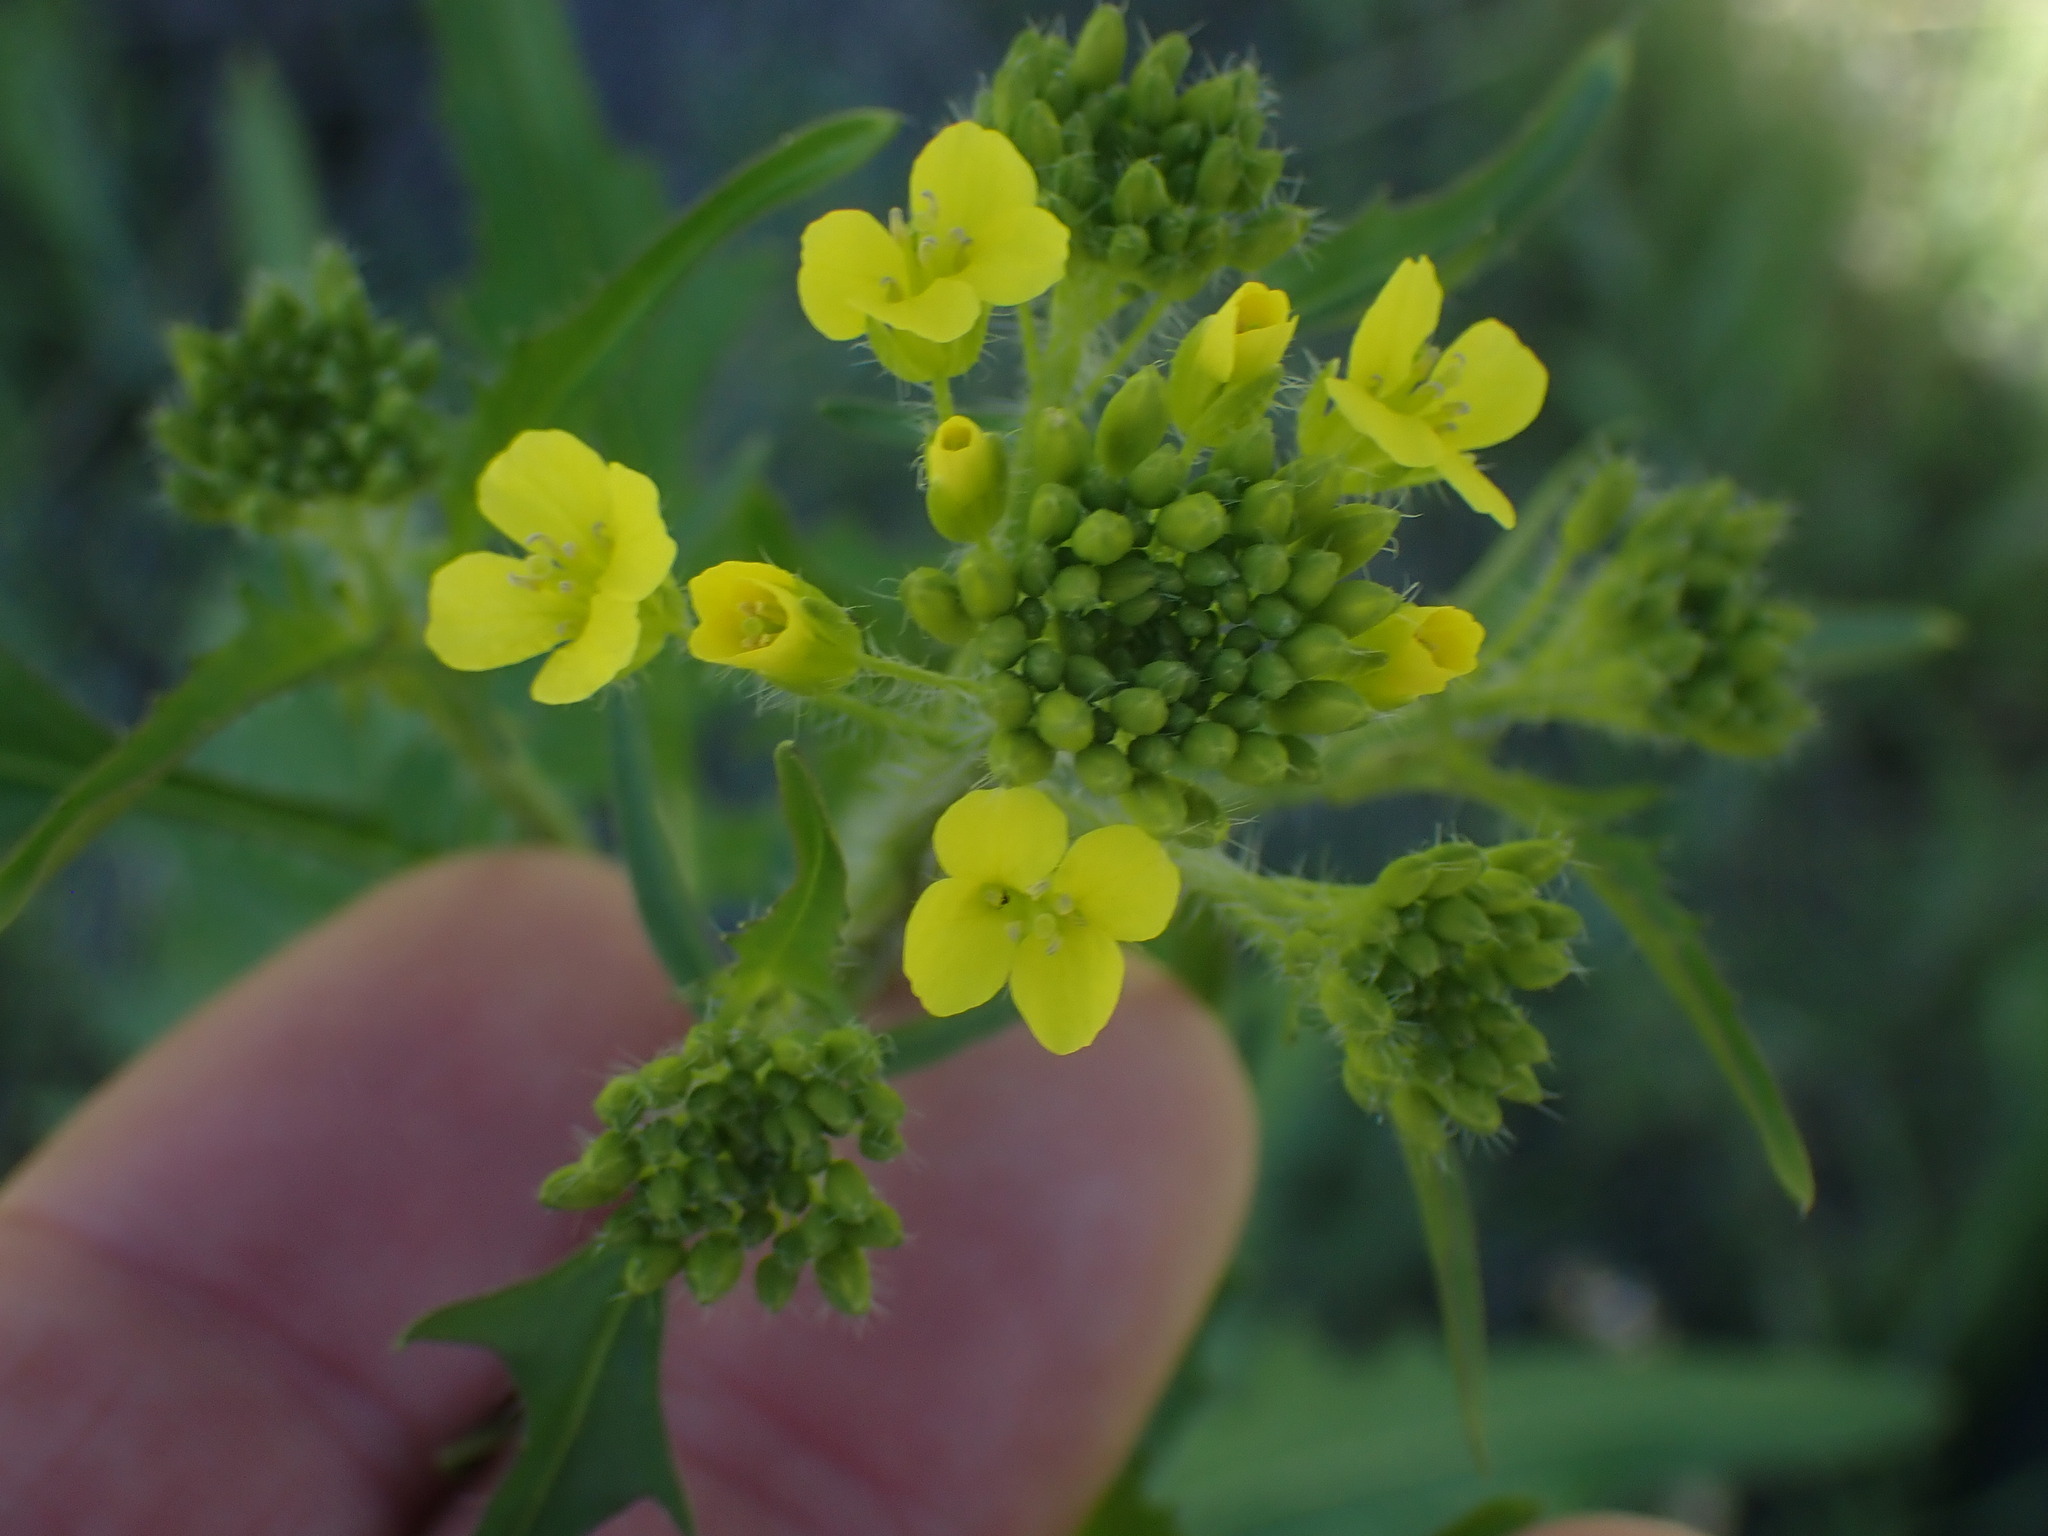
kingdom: Plantae
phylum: Tracheophyta
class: Magnoliopsida
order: Brassicales
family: Brassicaceae
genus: Sisymbrium
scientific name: Sisymbrium loeselii
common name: False london-rocket
